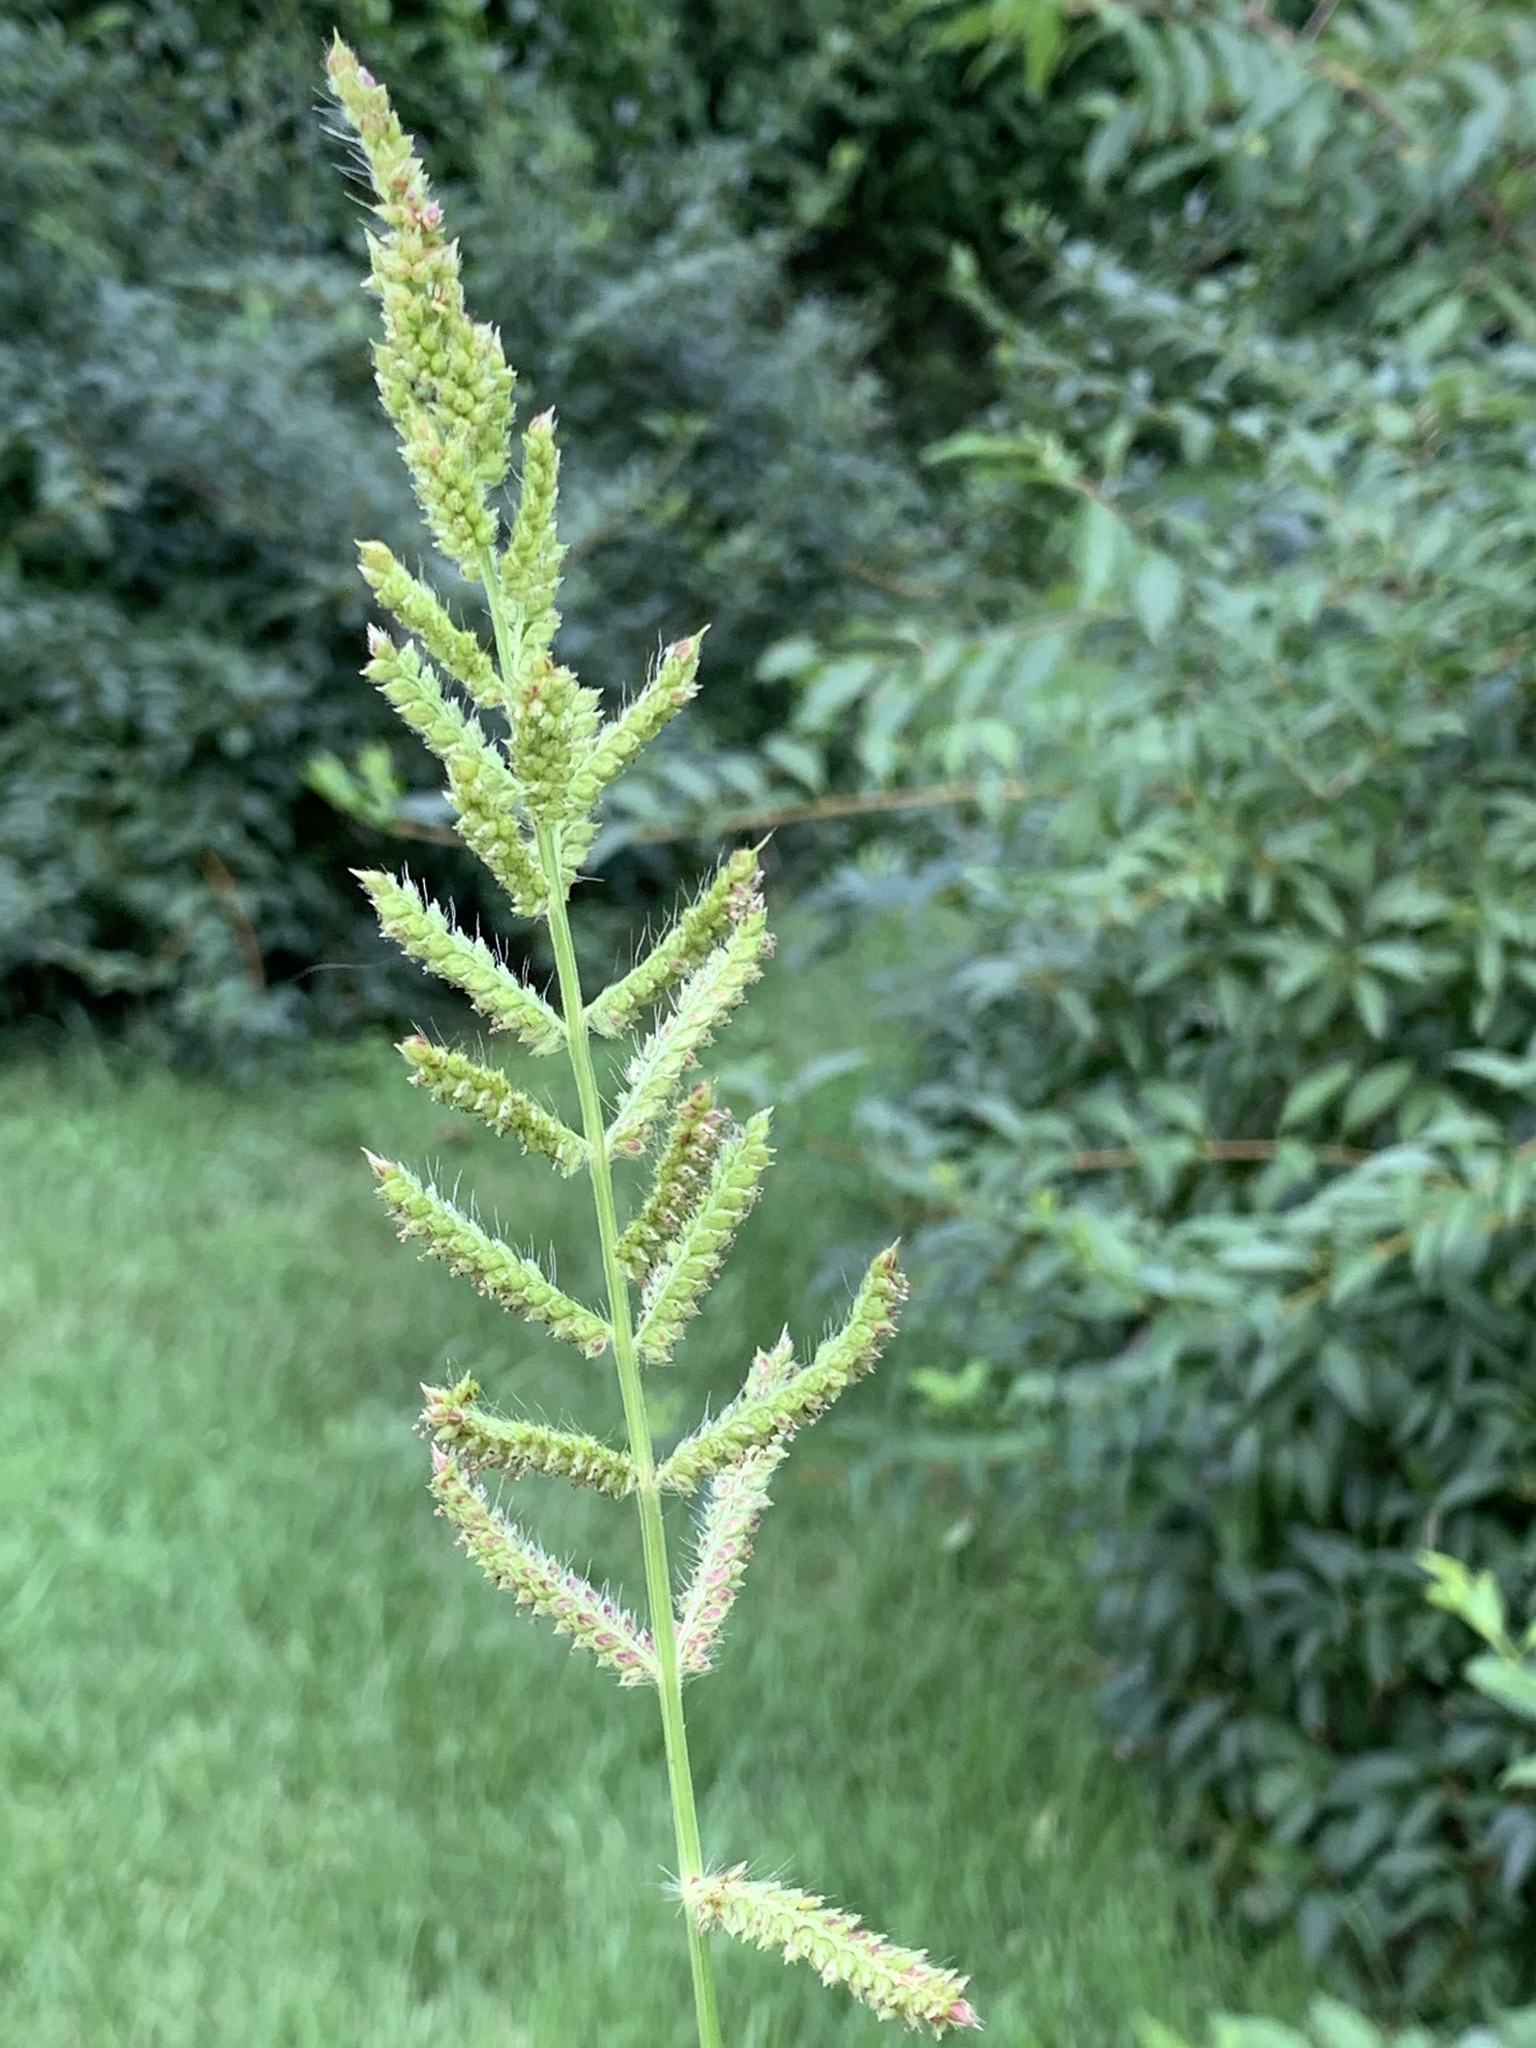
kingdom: Plantae
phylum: Tracheophyta
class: Liliopsida
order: Poales
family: Poaceae
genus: Echinochloa
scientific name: Echinochloa crus-galli
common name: Cockspur
